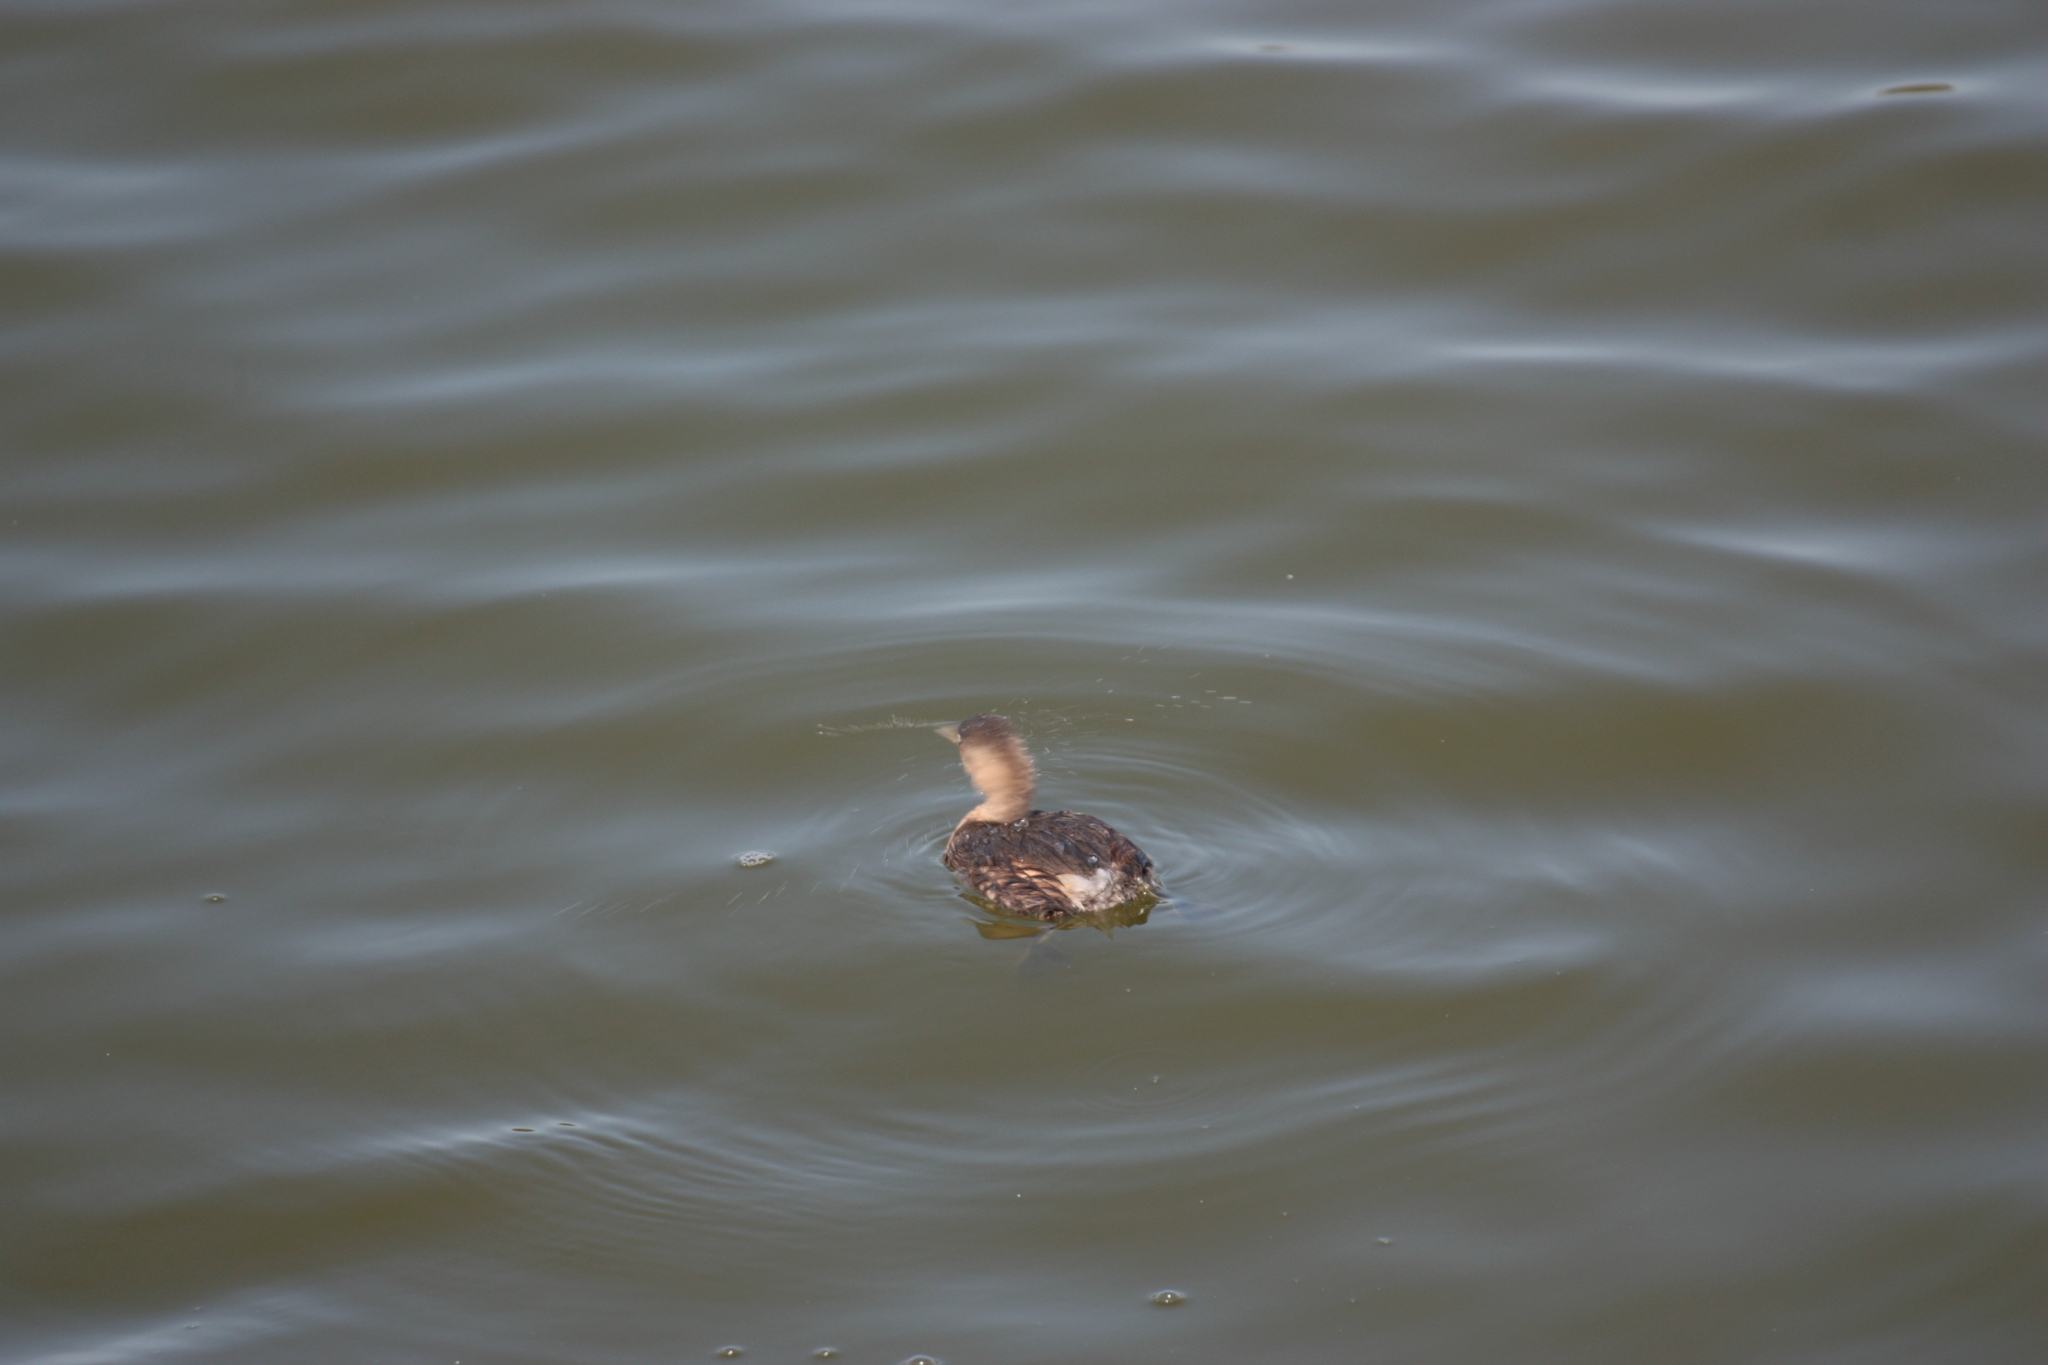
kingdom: Animalia
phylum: Chordata
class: Aves
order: Podicipediformes
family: Podicipedidae
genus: Tachybaptus
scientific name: Tachybaptus ruficollis
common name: Little grebe
